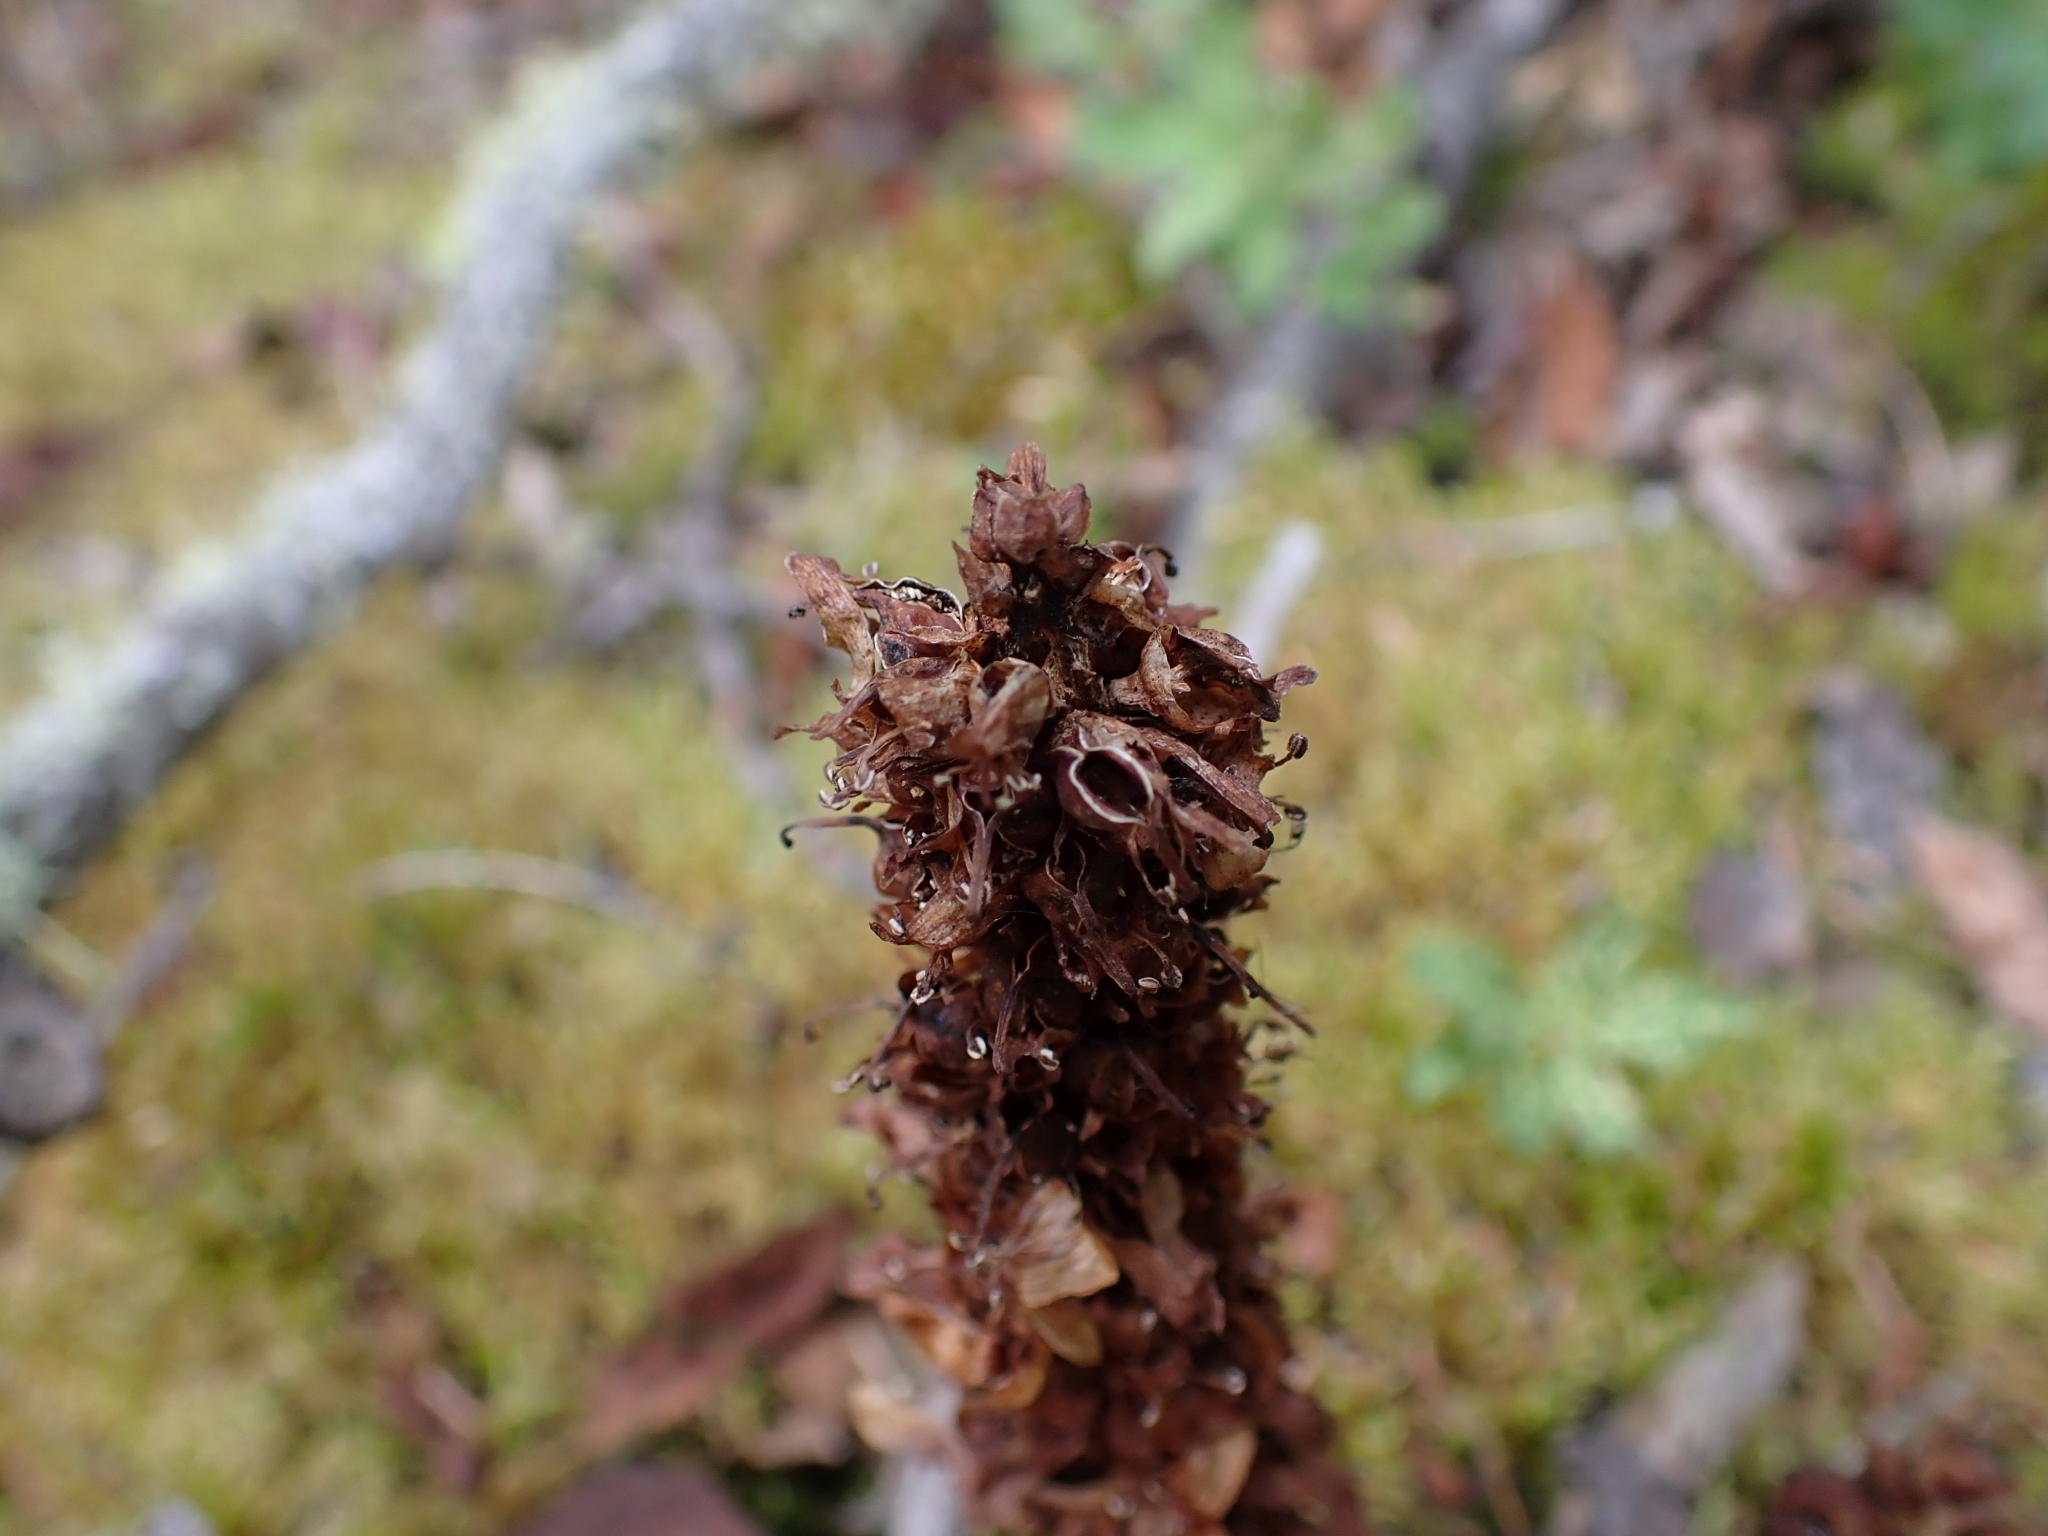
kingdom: Plantae
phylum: Tracheophyta
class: Magnoliopsida
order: Lamiales
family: Orobanchaceae
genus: Boschniakia
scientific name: Boschniakia rossica
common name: Poque
